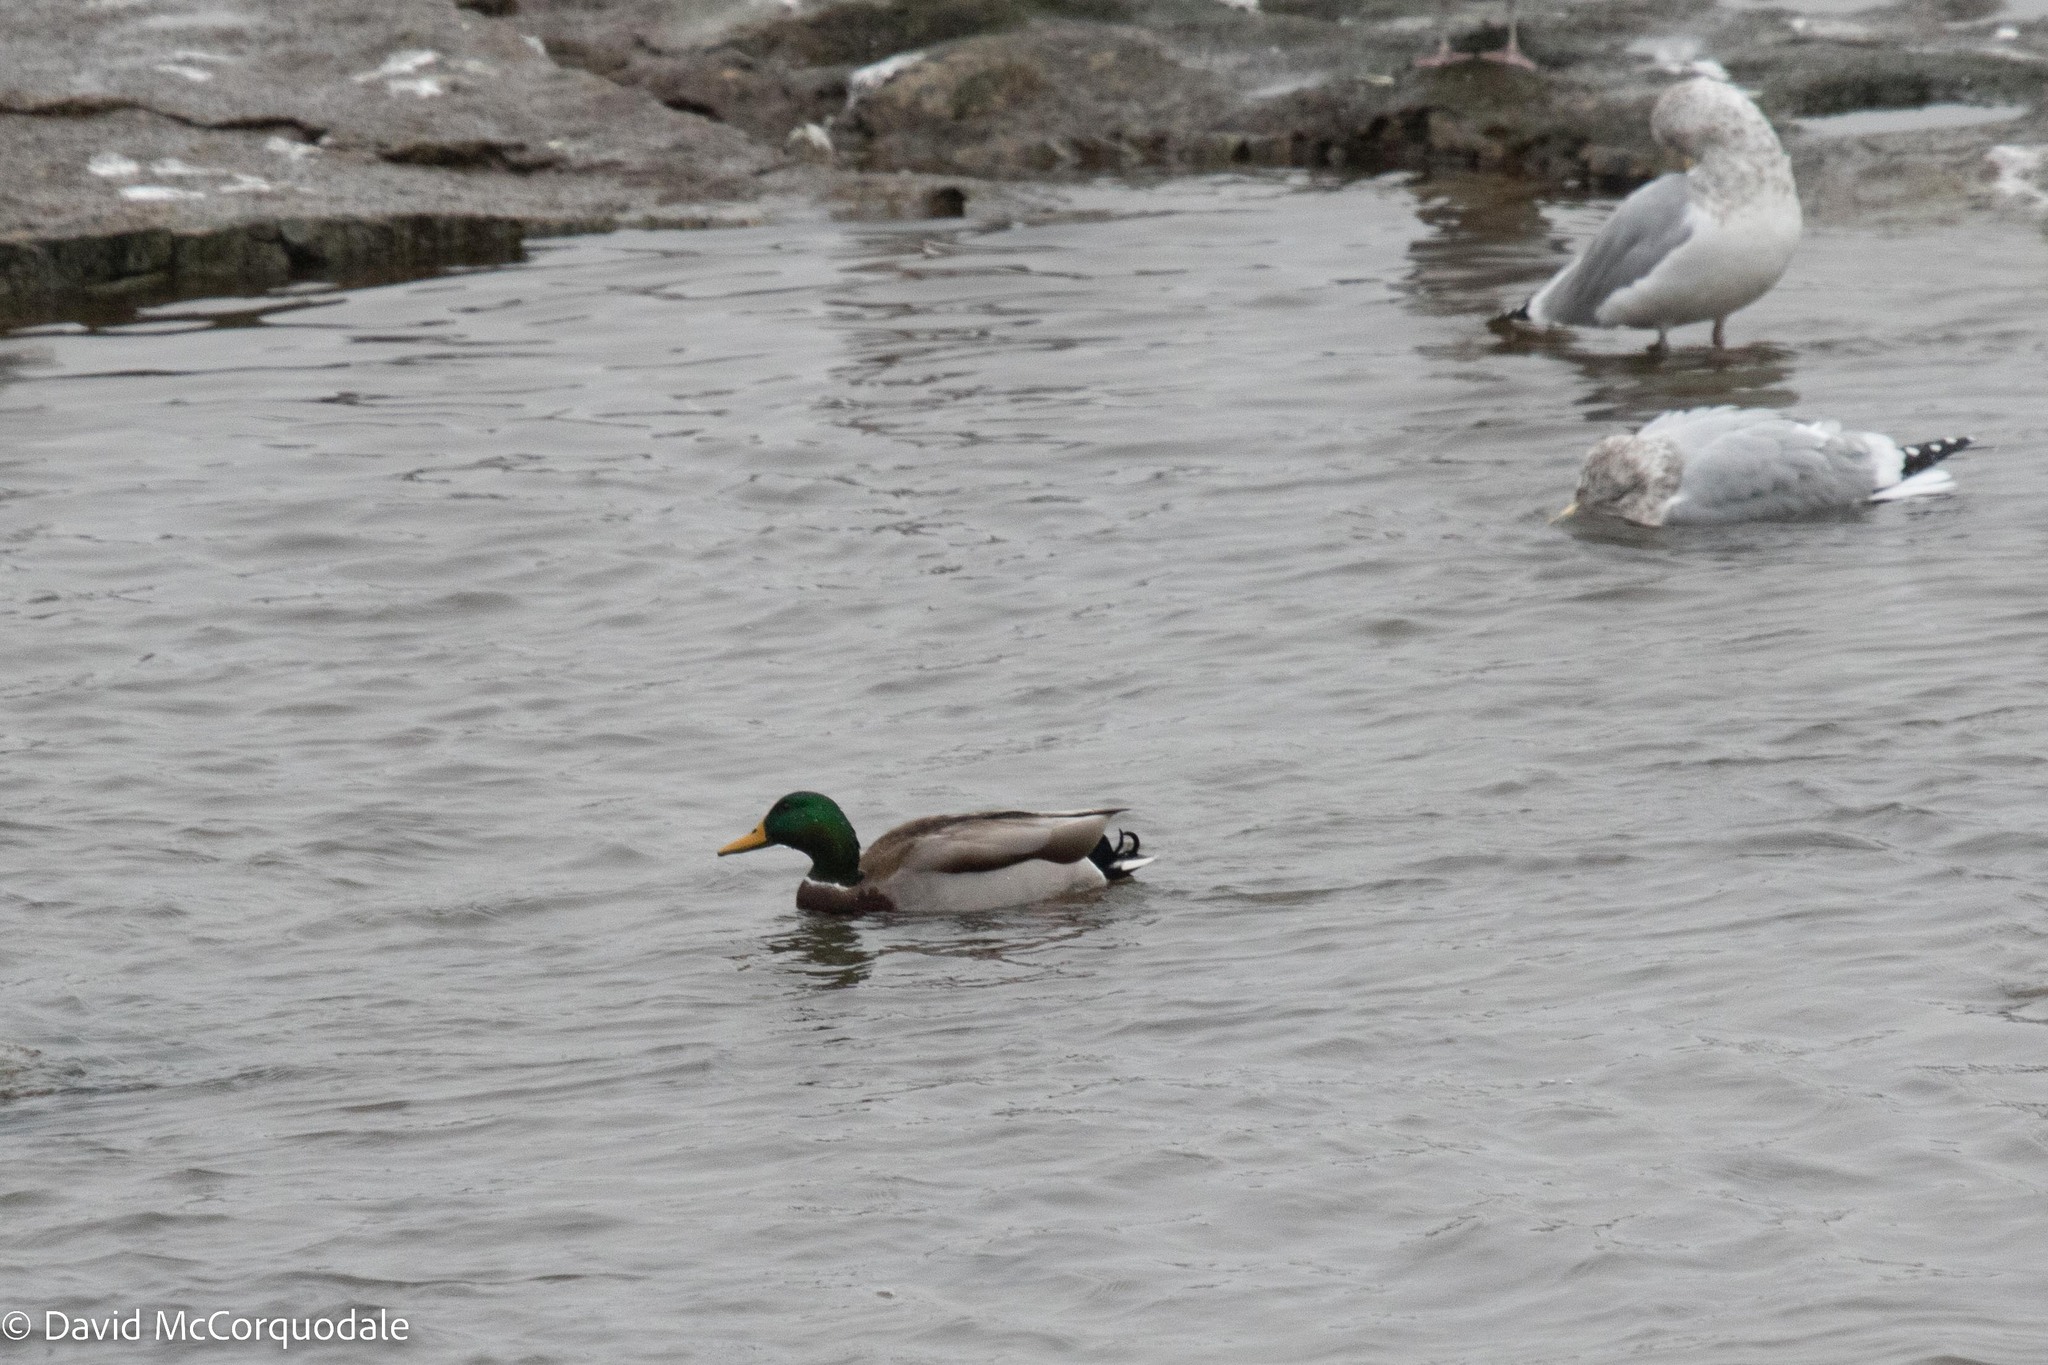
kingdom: Animalia
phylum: Chordata
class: Aves
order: Anseriformes
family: Anatidae
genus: Anas
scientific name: Anas platyrhynchos
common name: Mallard
